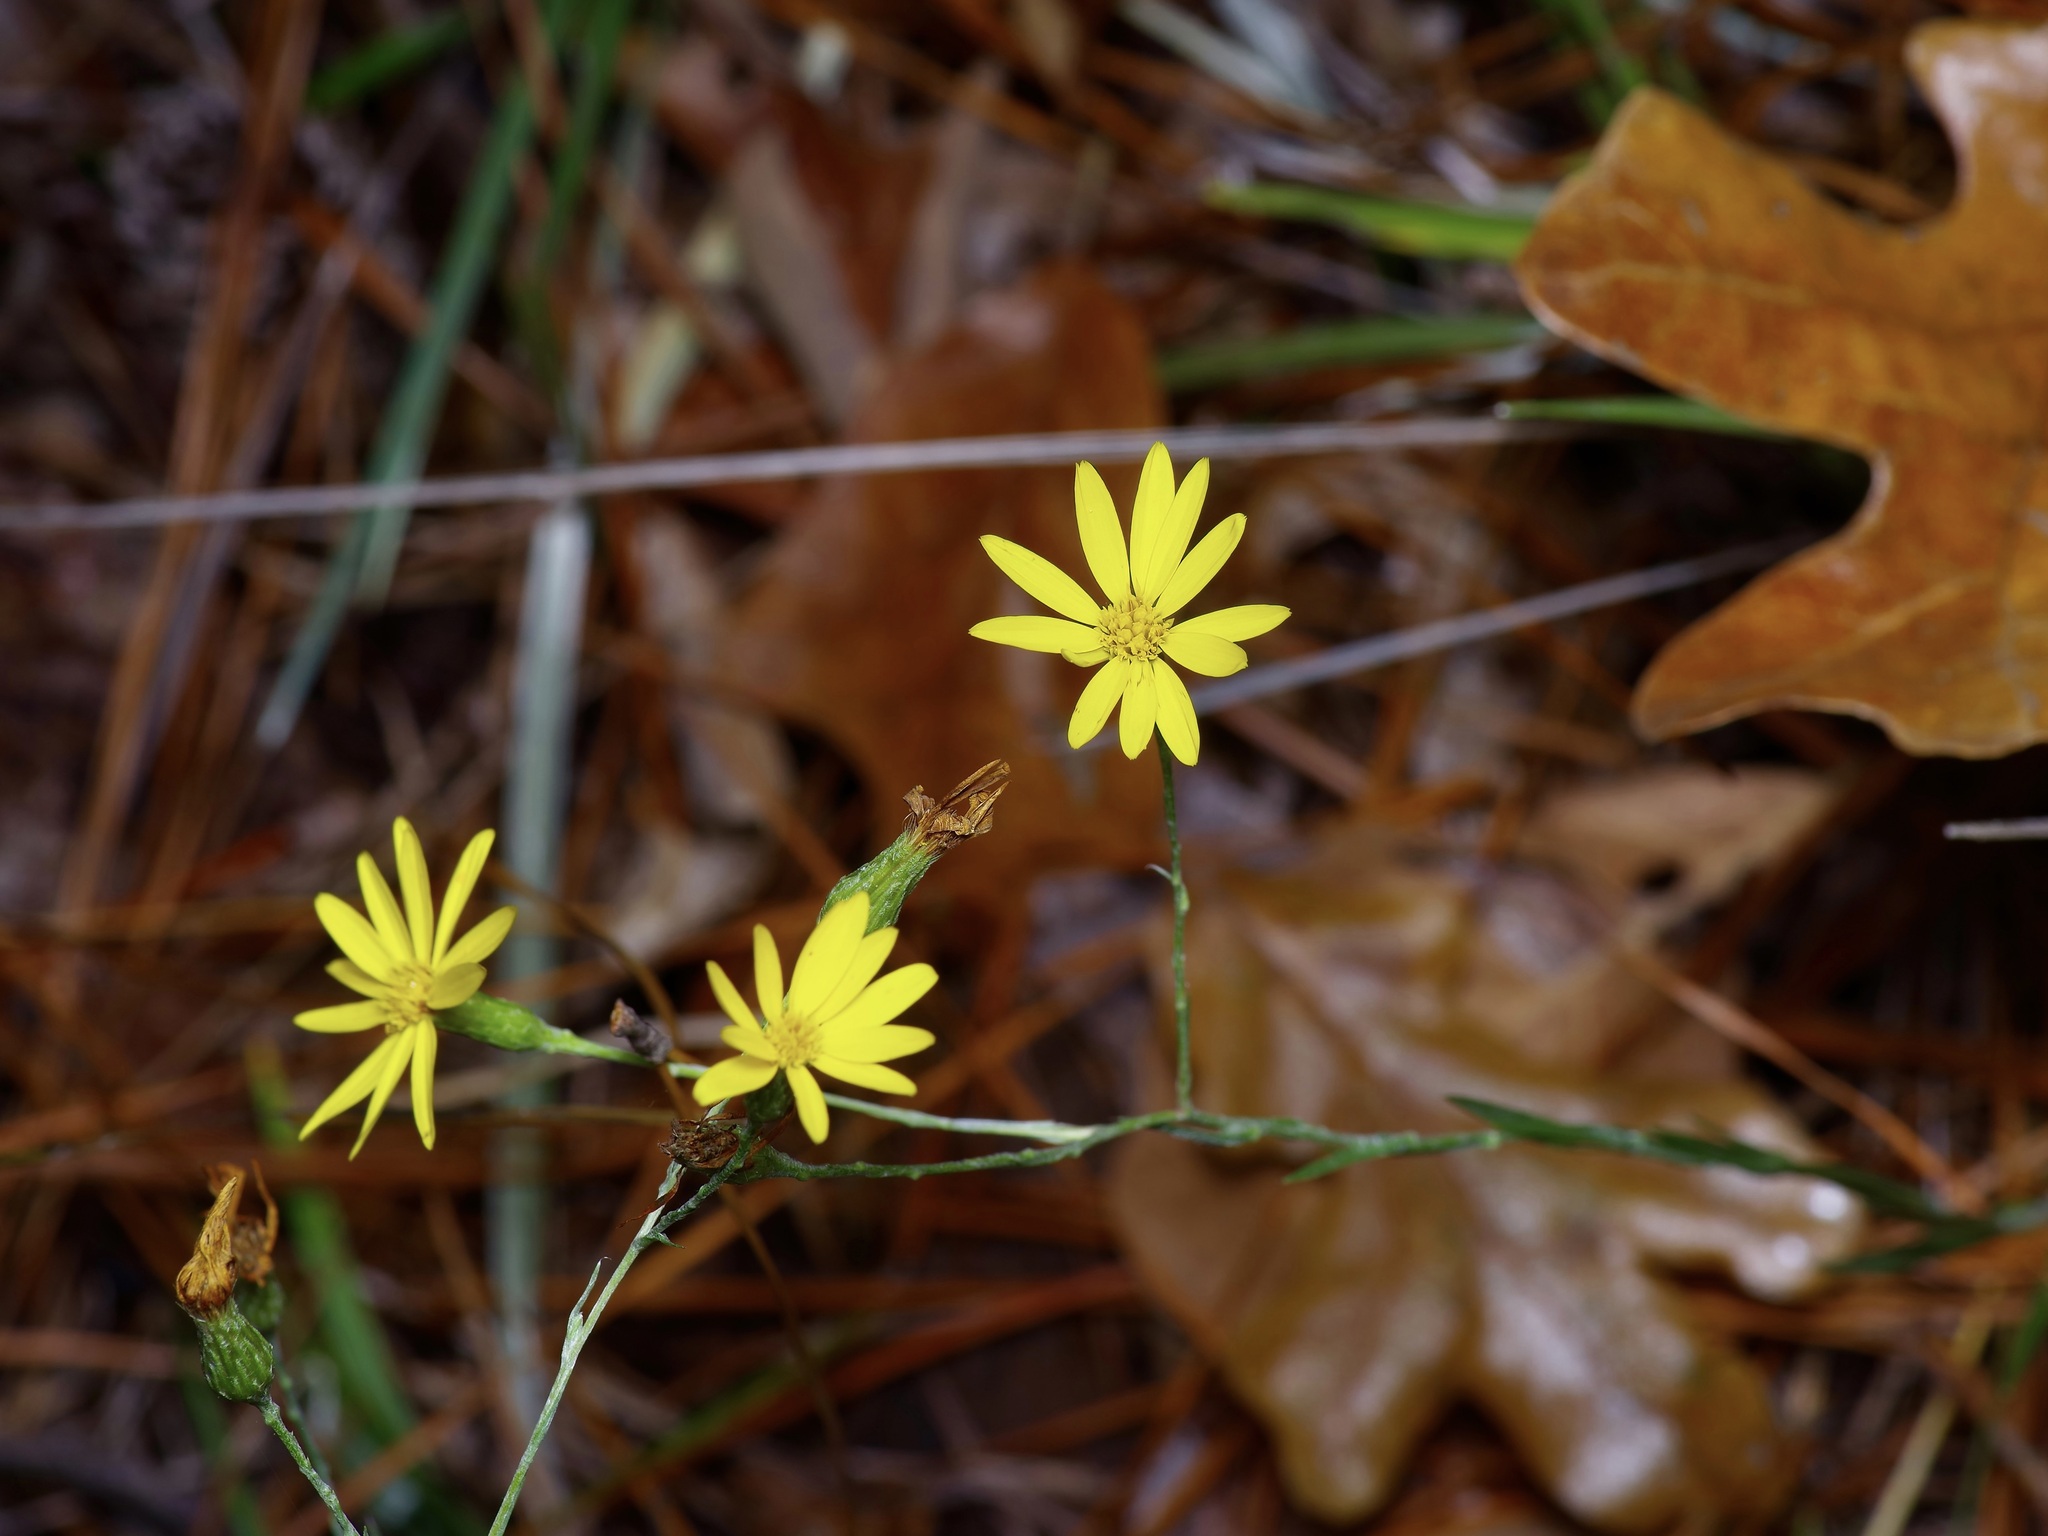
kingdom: Plantae
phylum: Tracheophyta
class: Magnoliopsida
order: Asterales
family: Asteraceae
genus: Pityopsis
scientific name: Pityopsis graminifolia
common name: Grass-leaf golden-aster
